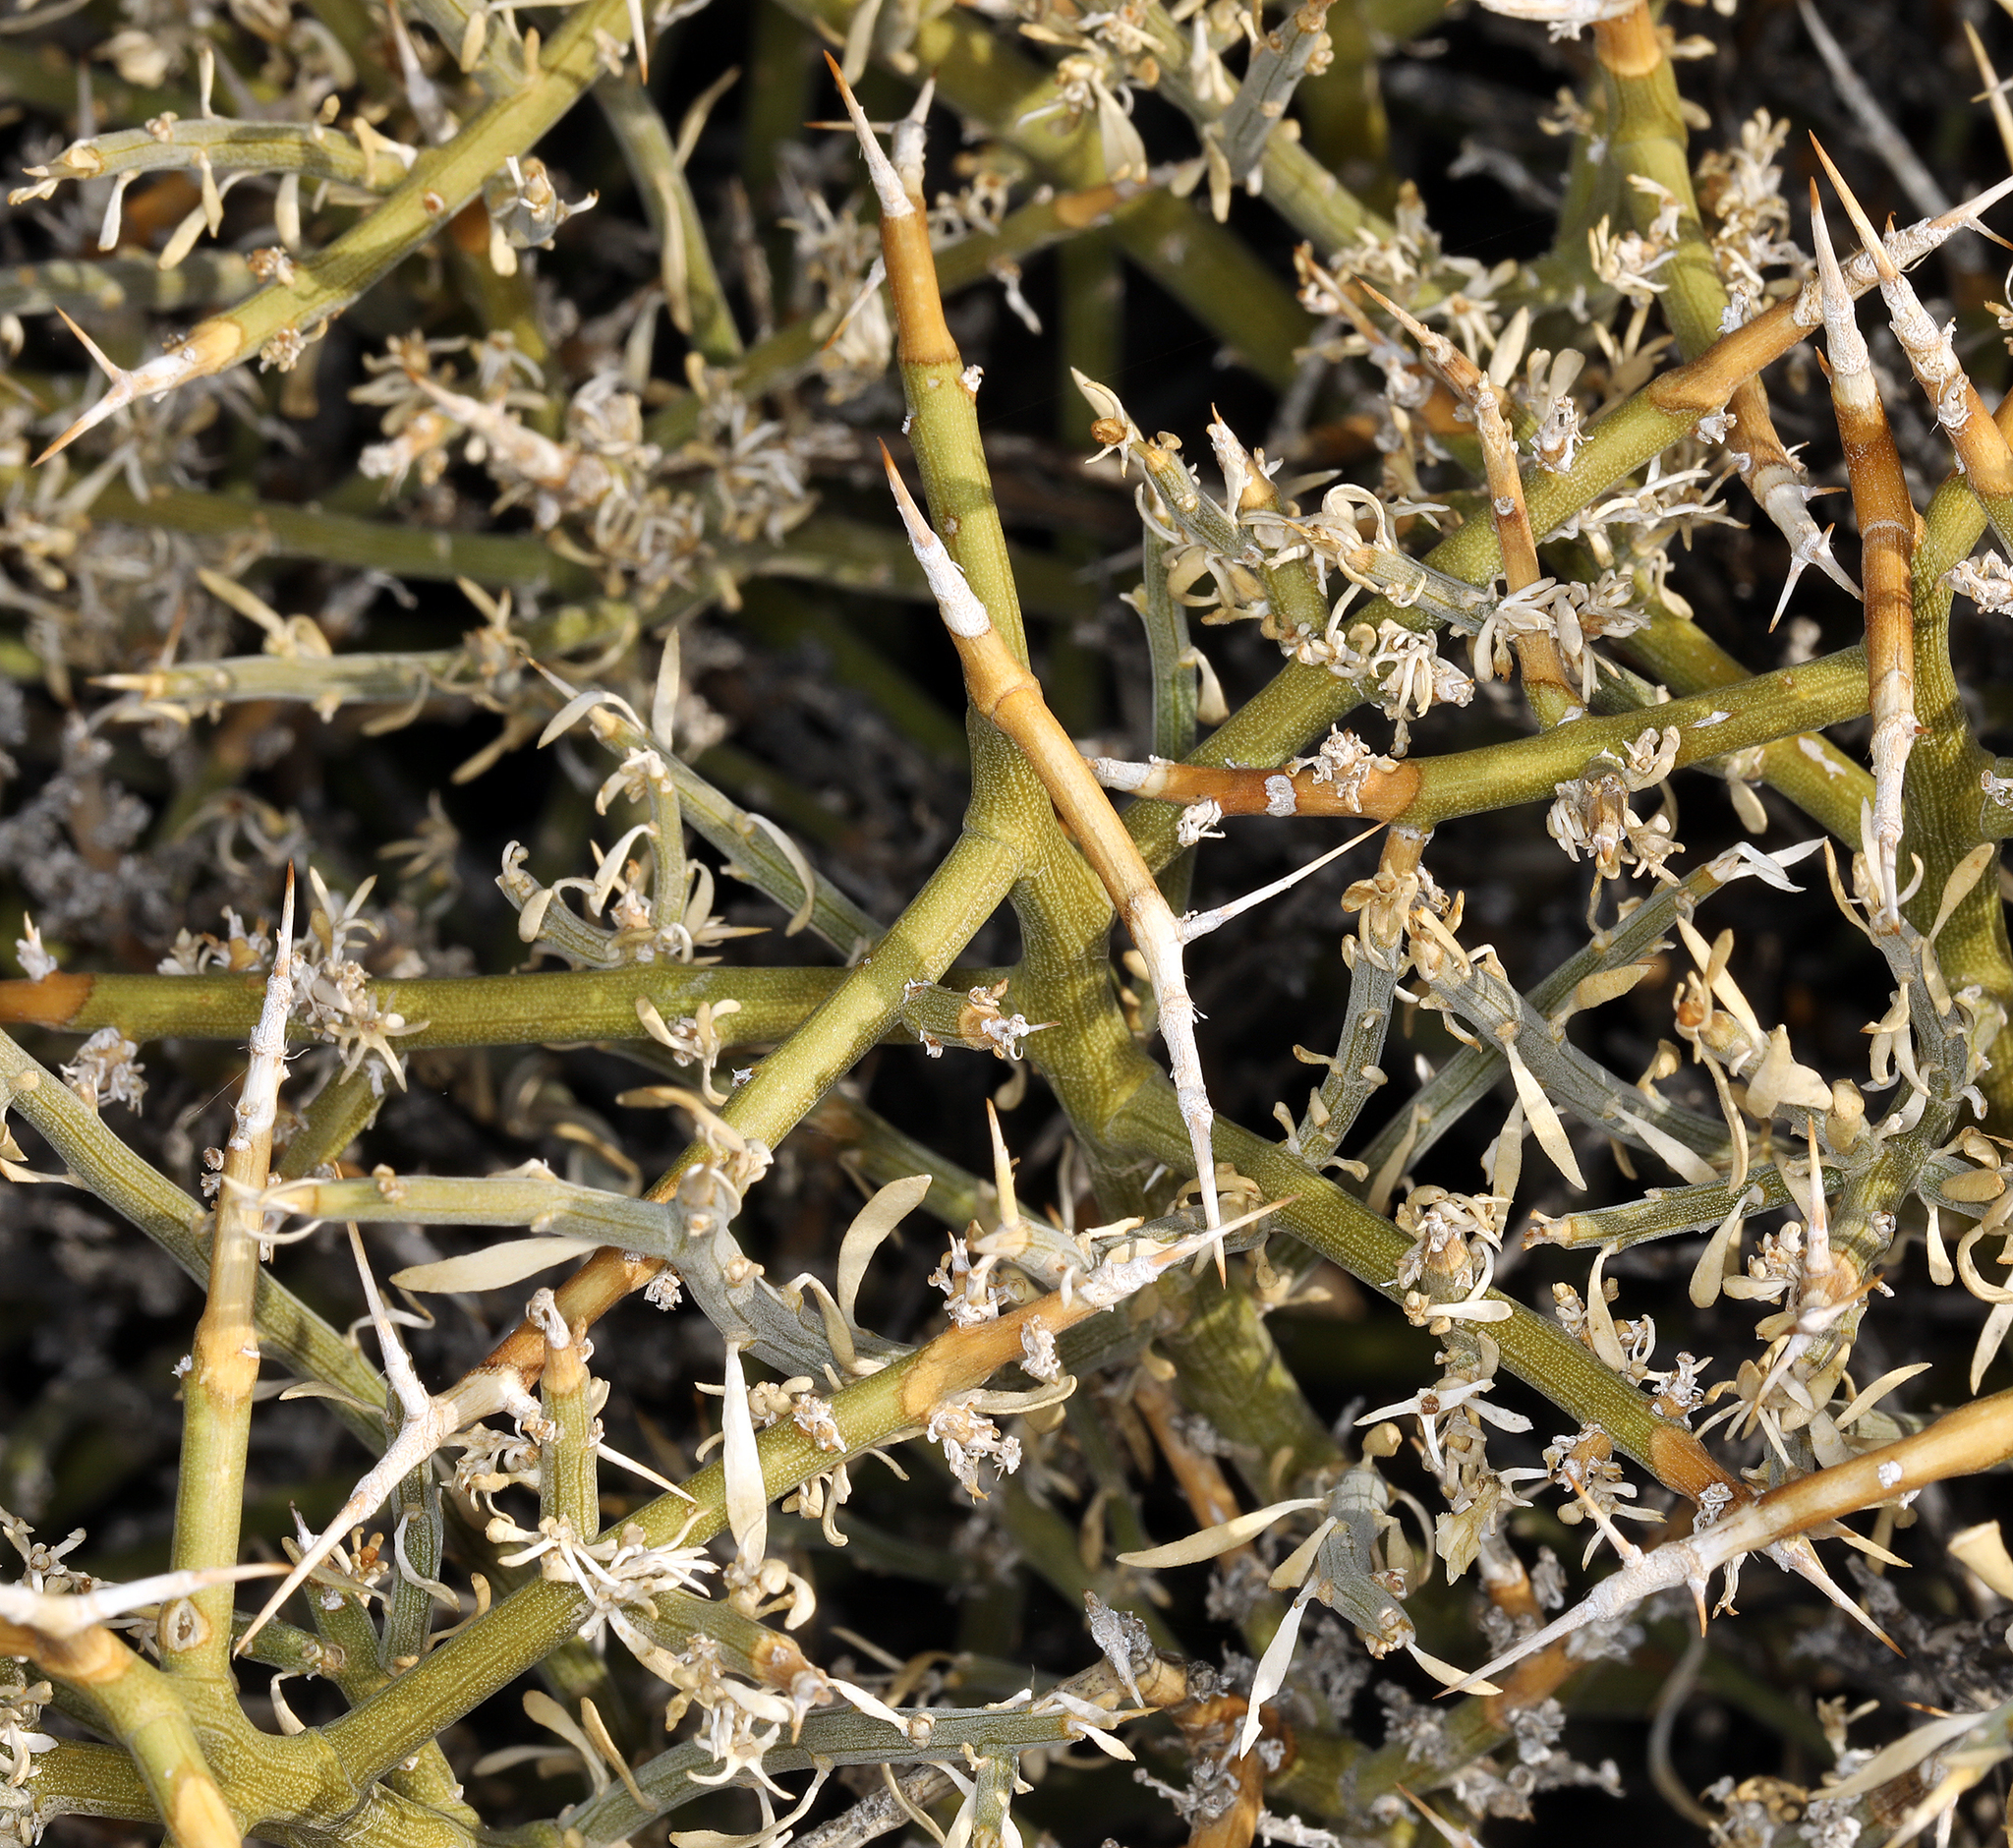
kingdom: Plantae
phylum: Tracheophyta
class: Magnoliopsida
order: Lamiales
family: Oleaceae
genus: Menodora
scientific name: Menodora spinescens
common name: Spiny menodora
